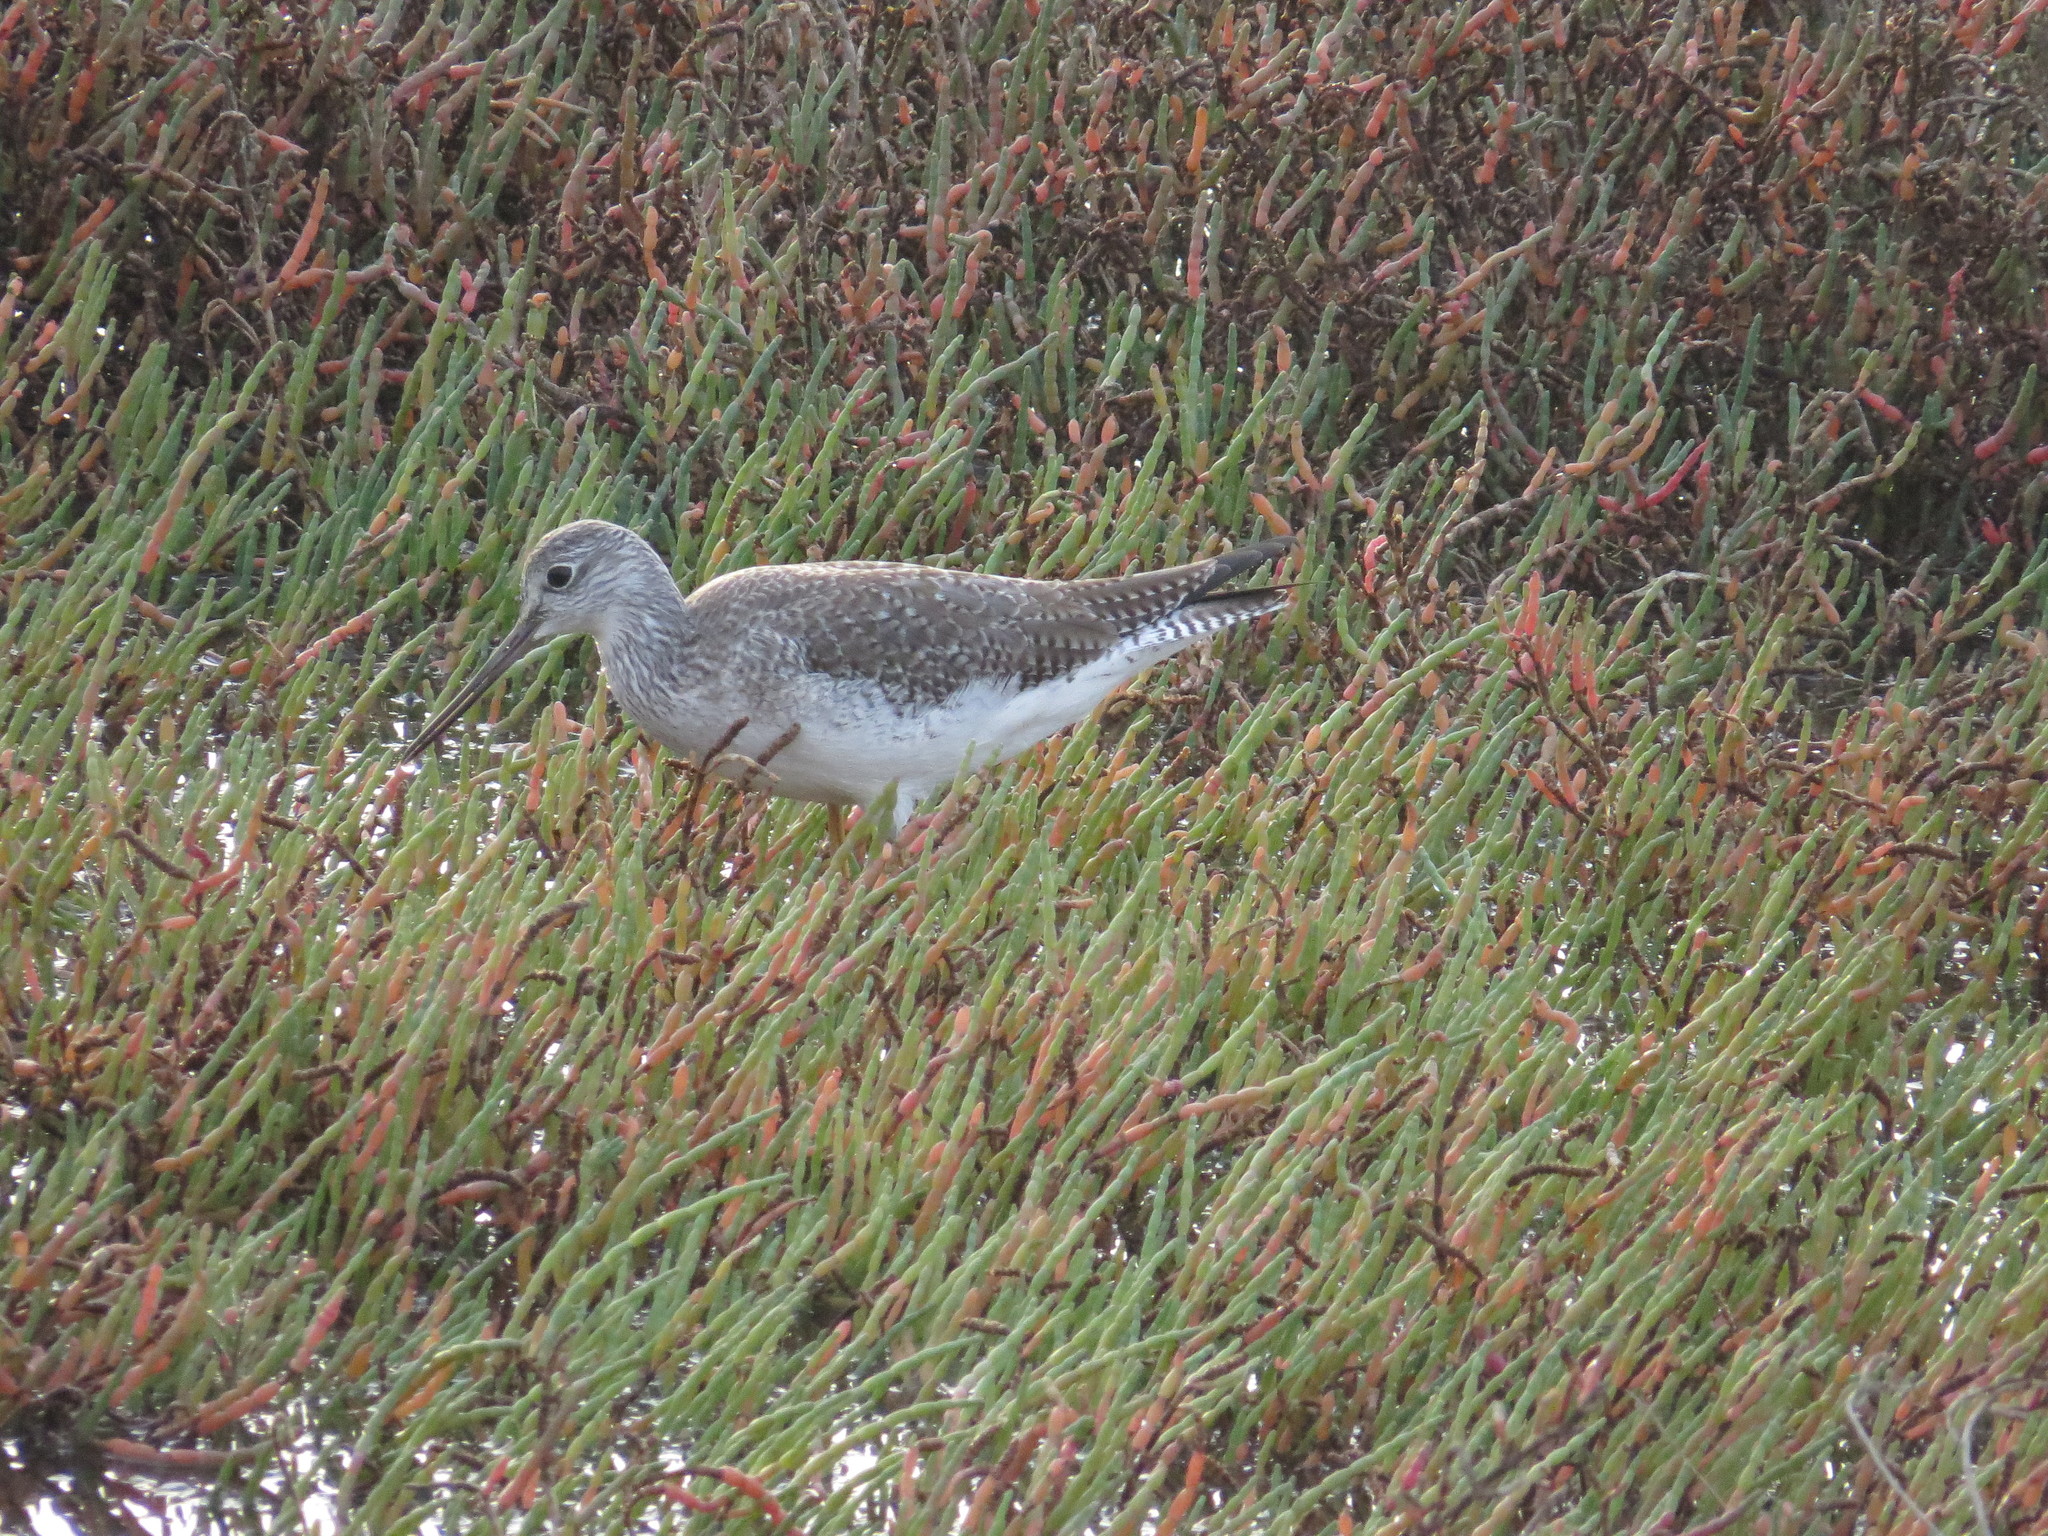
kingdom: Animalia
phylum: Chordata
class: Aves
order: Charadriiformes
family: Scolopacidae
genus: Tringa
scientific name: Tringa melanoleuca
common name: Greater yellowlegs
